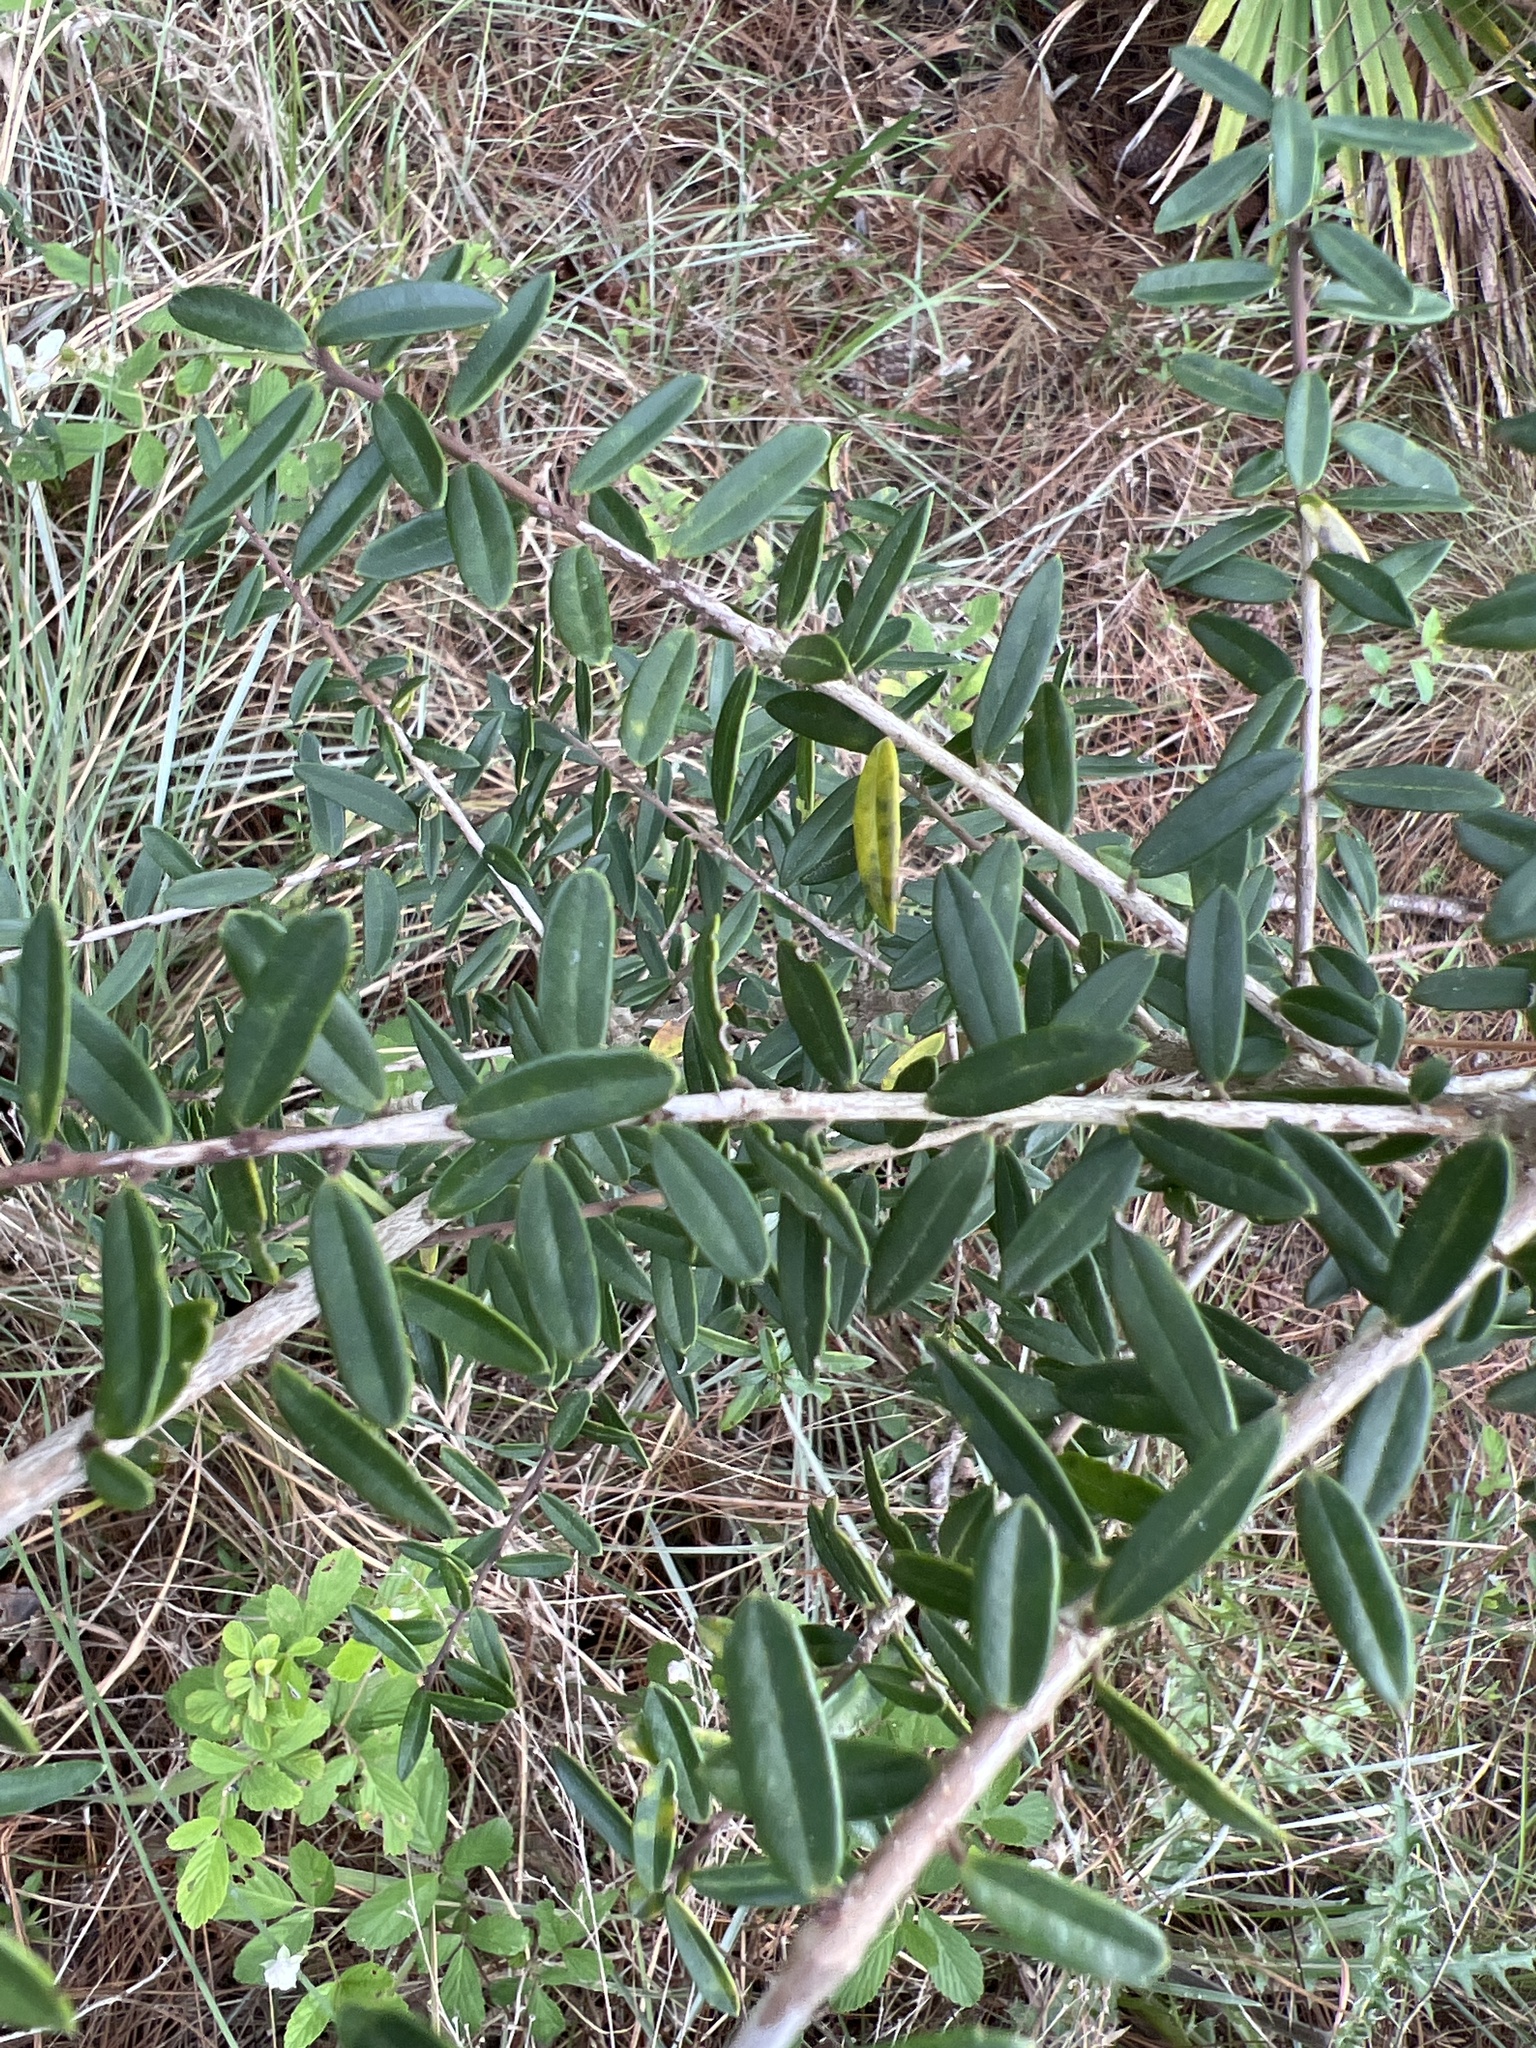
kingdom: Plantae
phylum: Tracheophyta
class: Magnoliopsida
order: Aquifoliales
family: Aquifoliaceae
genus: Ilex
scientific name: Ilex myrtifolia
